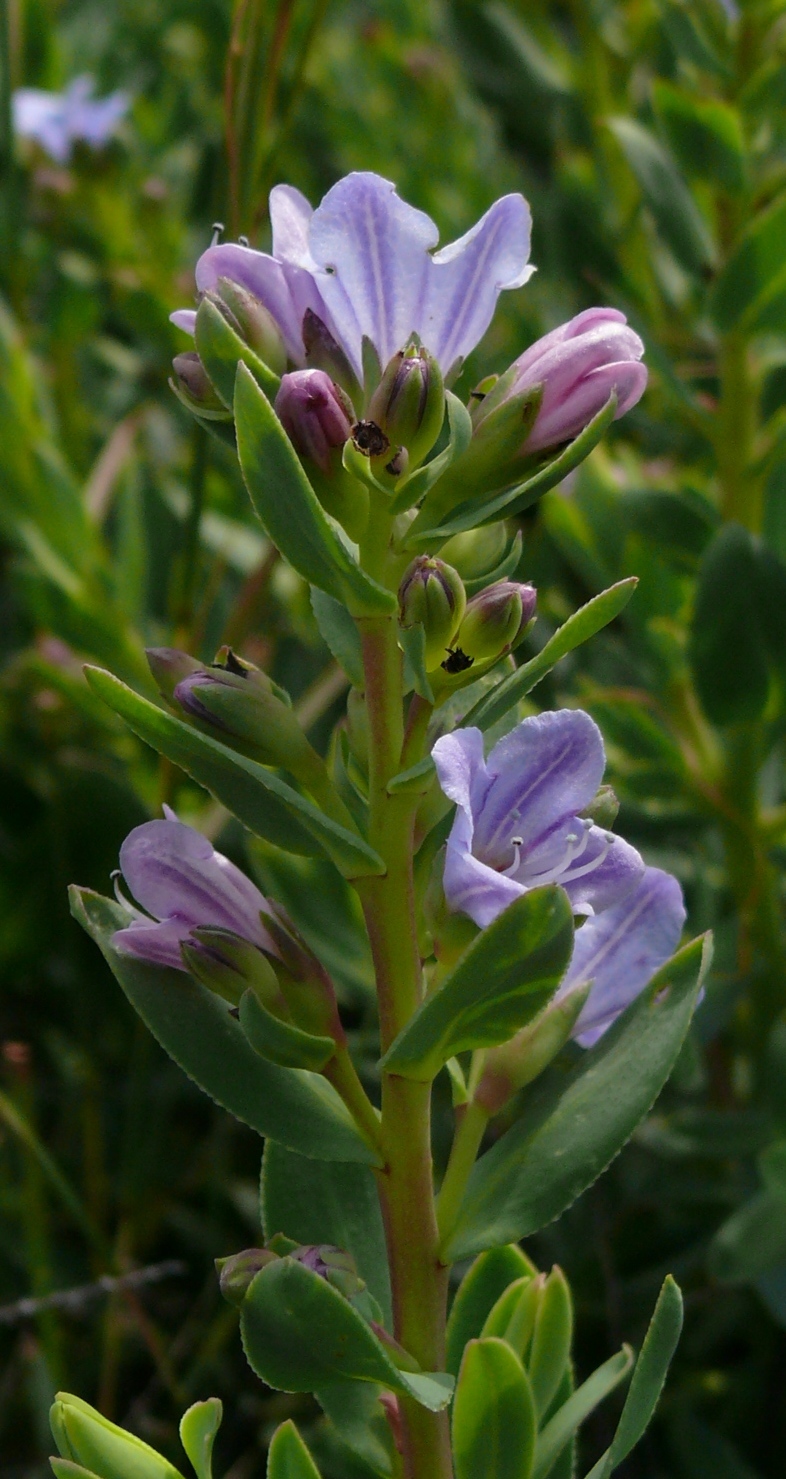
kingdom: Plantae
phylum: Tracheophyta
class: Magnoliopsida
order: Boraginales
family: Boraginaceae
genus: Lobostemon
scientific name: Lobostemon glaucophyllus
